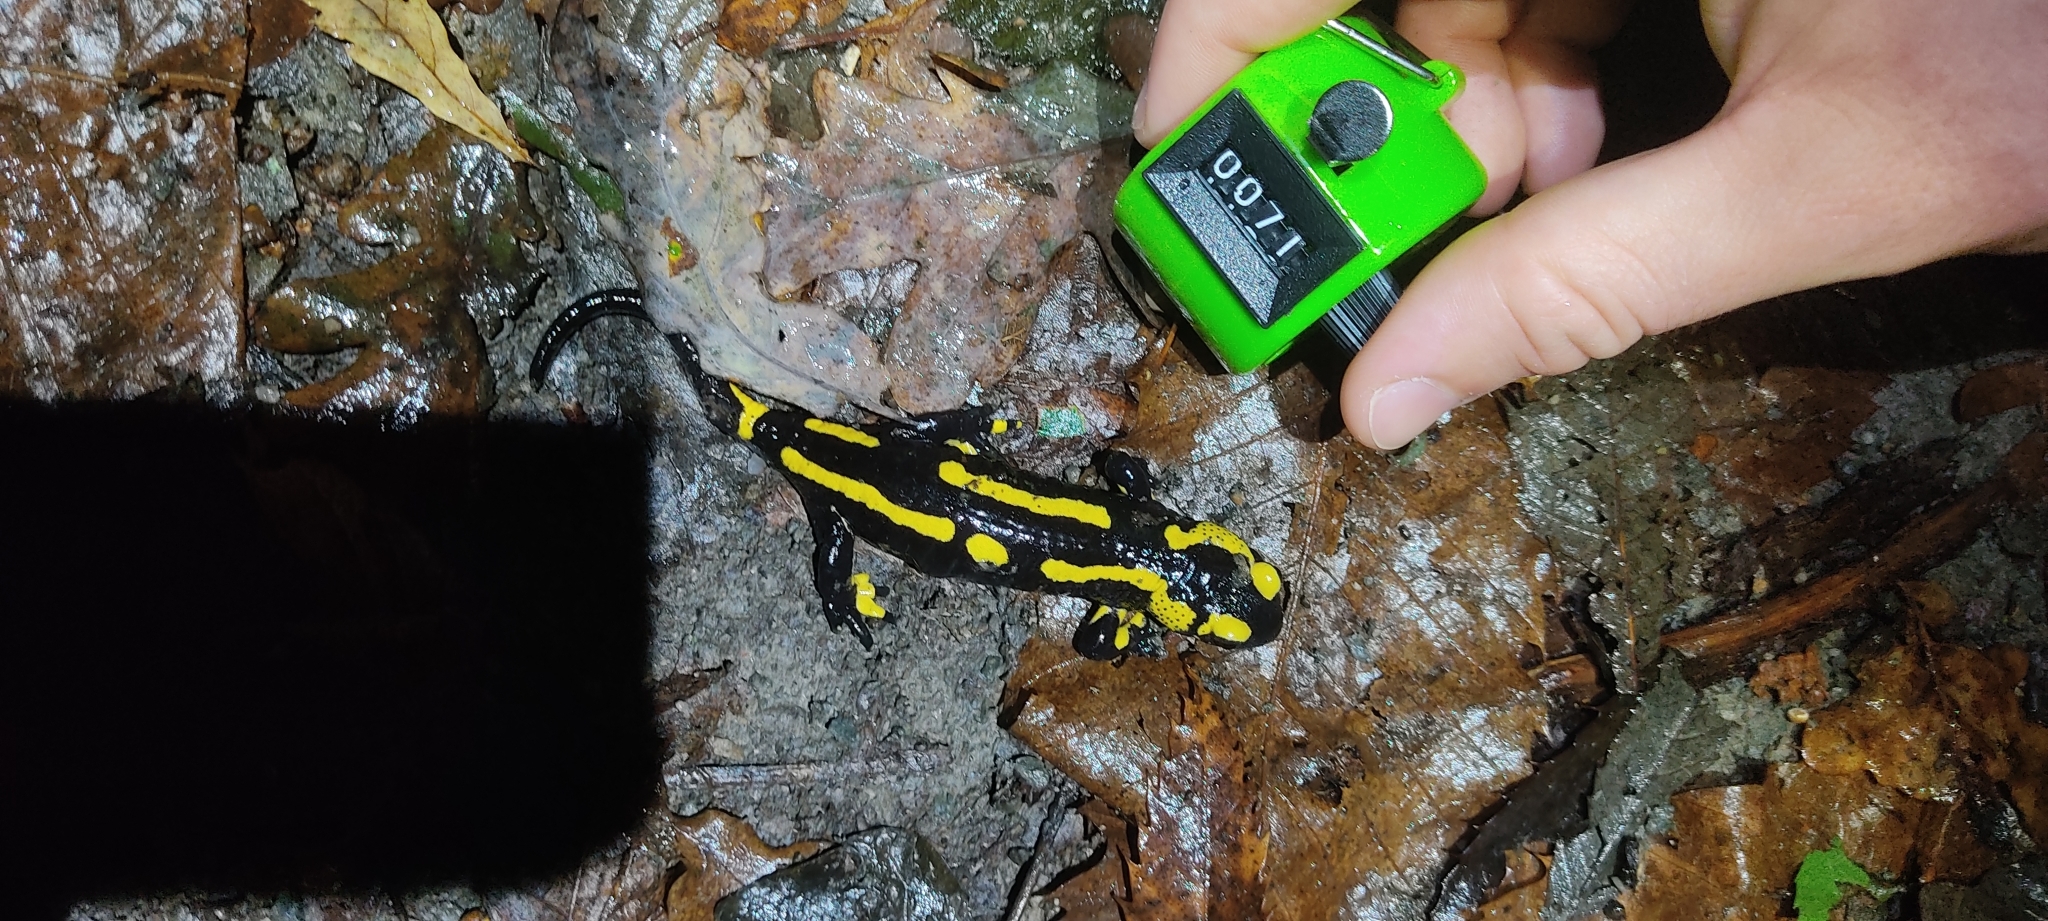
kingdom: Animalia
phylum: Chordata
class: Amphibia
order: Caudata
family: Salamandridae
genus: Salamandra
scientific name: Salamandra salamandra
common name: Fire salamander
